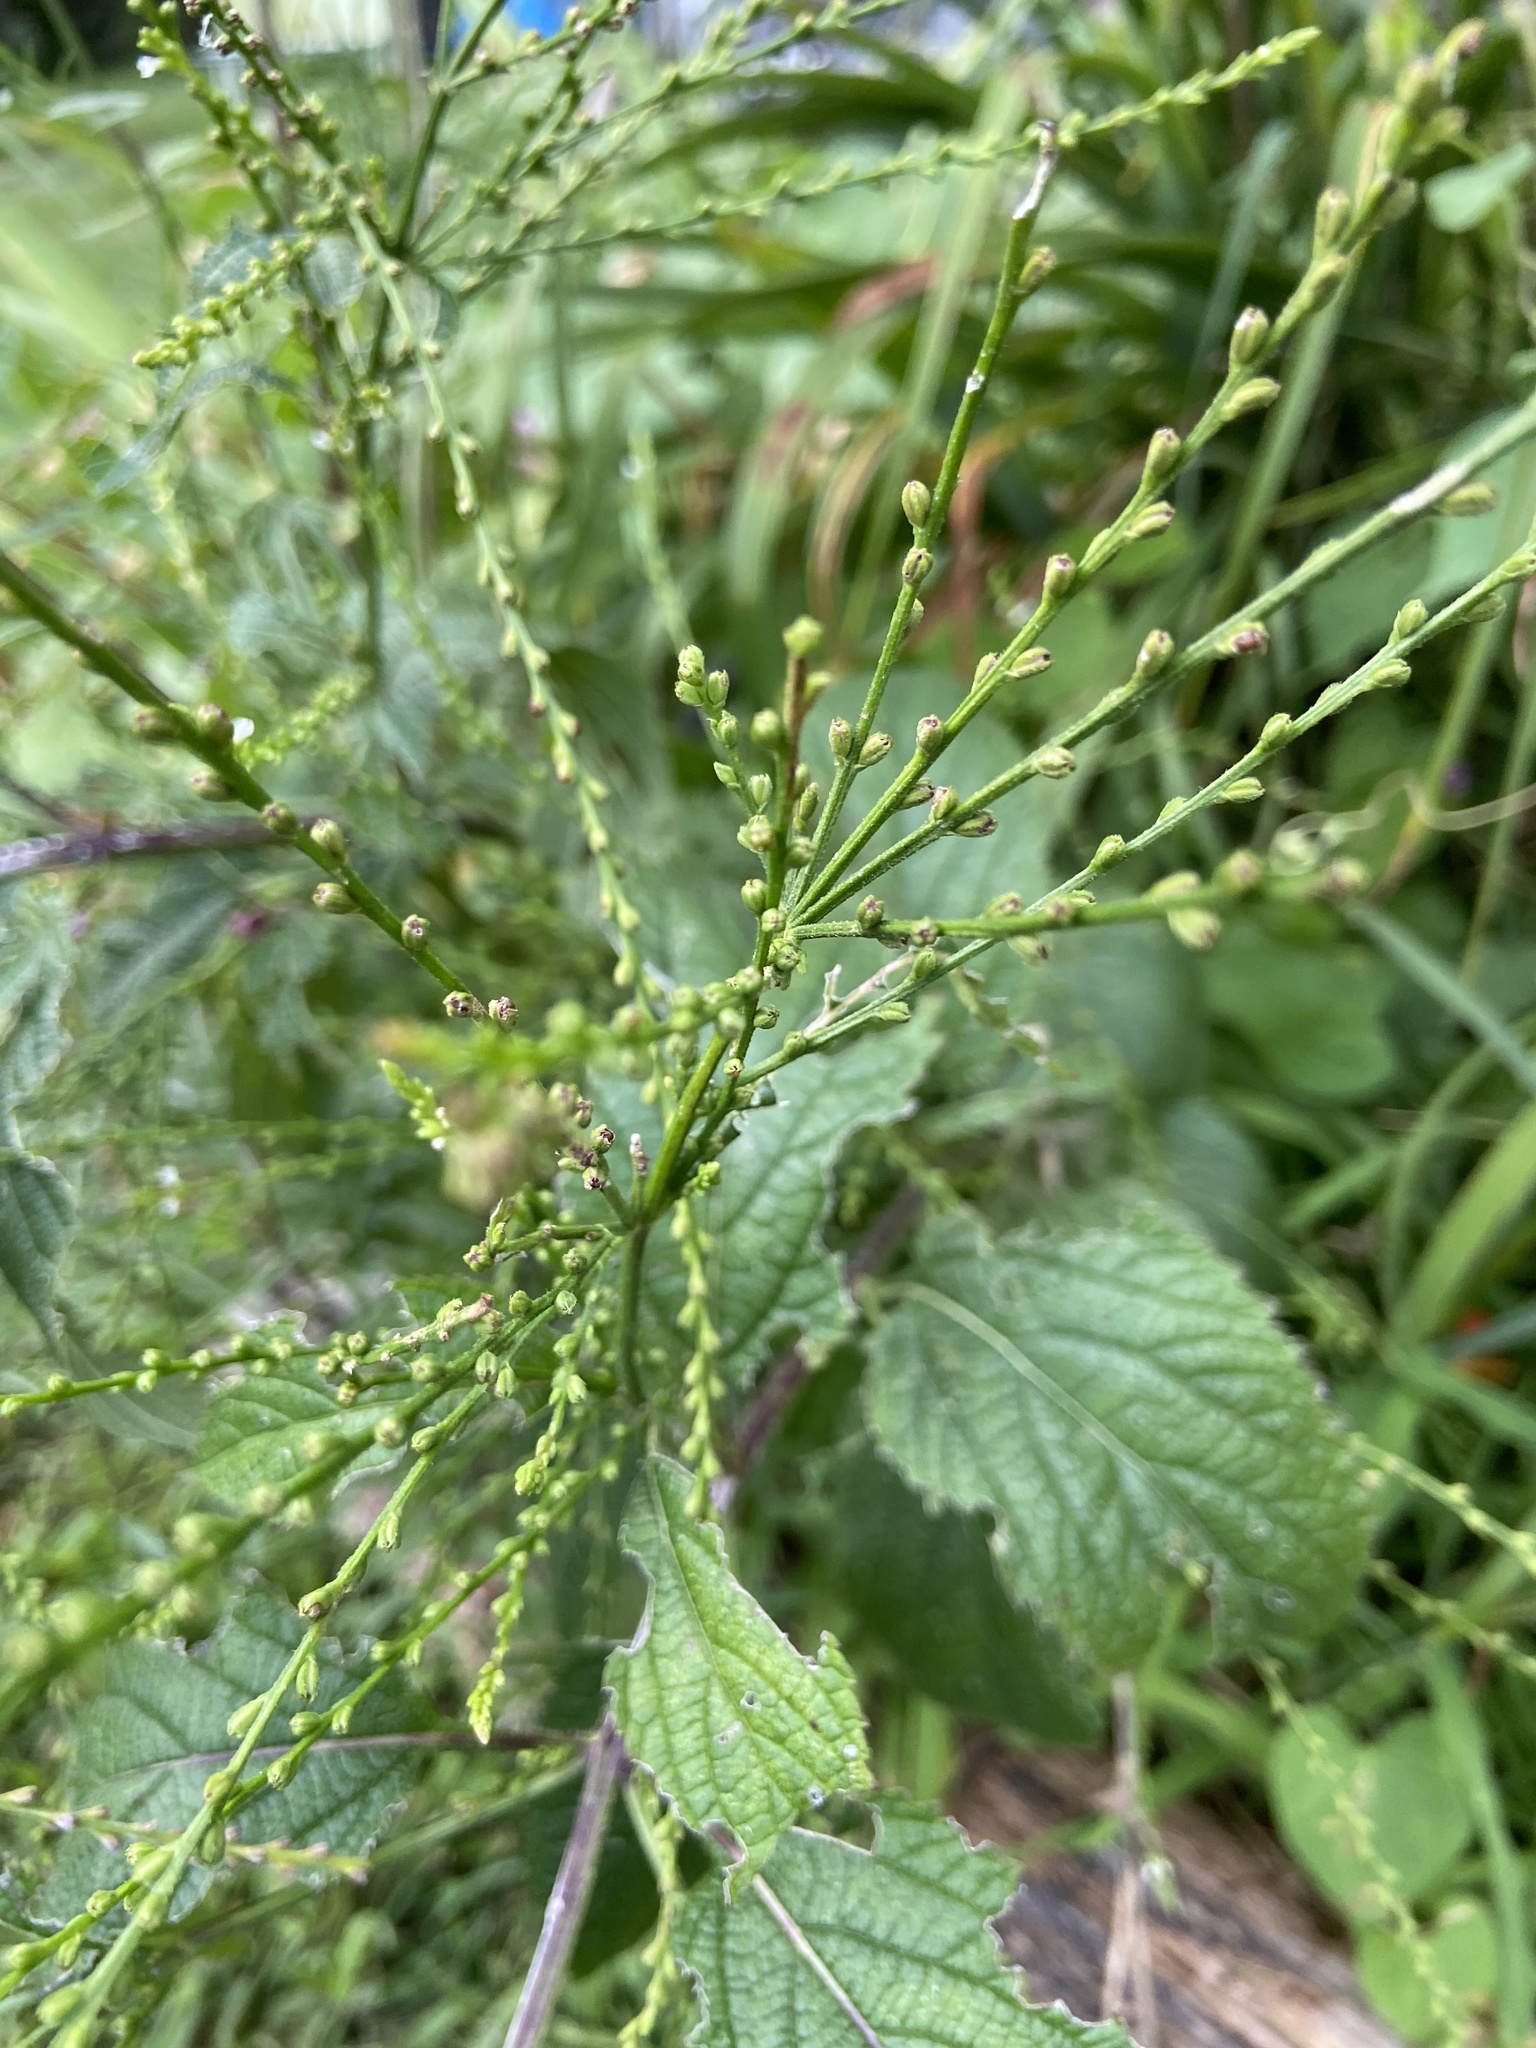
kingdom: Plantae
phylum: Tracheophyta
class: Magnoliopsida
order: Lamiales
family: Verbenaceae
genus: Verbena
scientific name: Verbena urticifolia
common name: Nettle-leaved vervain
